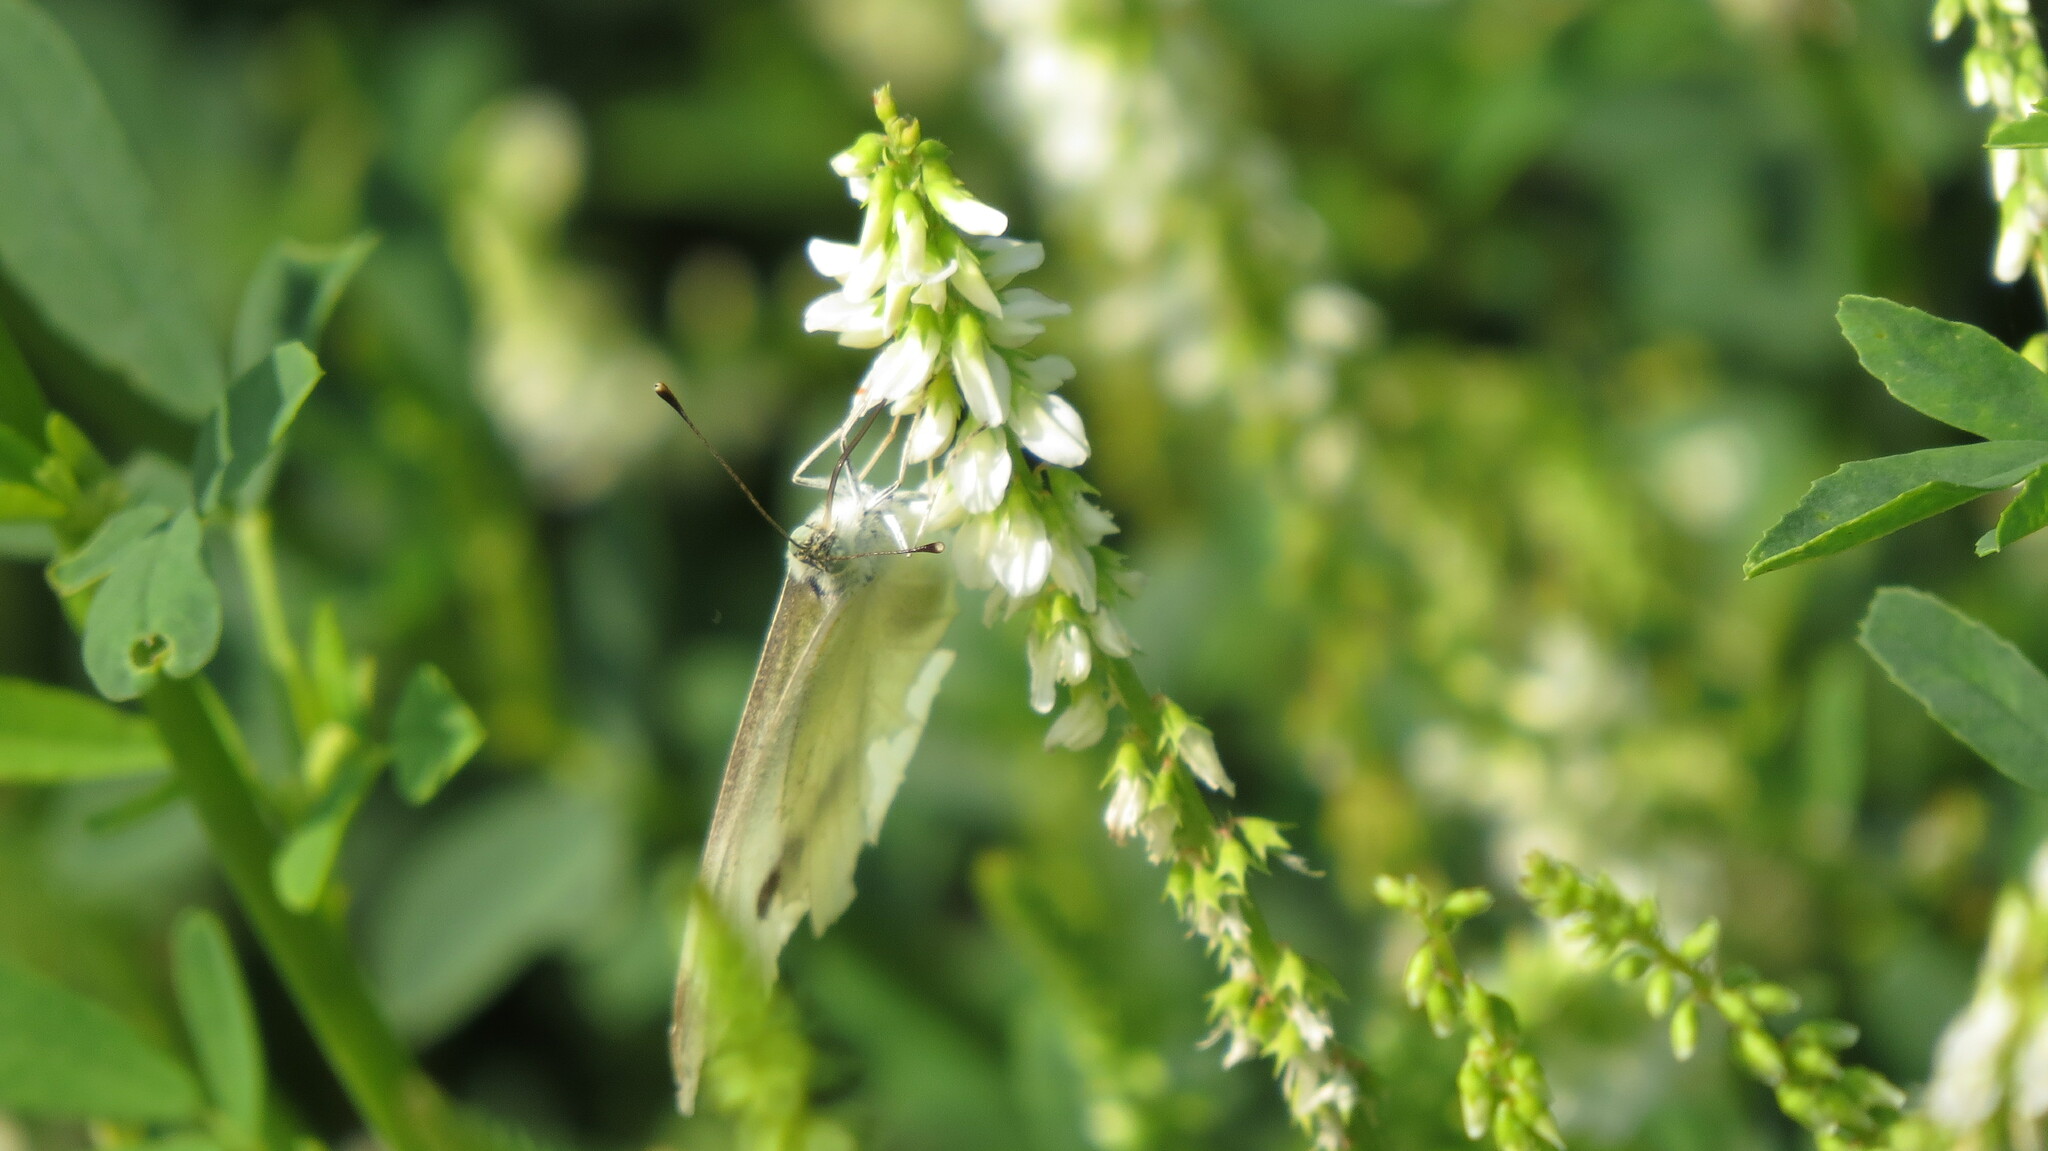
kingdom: Animalia
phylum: Arthropoda
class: Insecta
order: Lepidoptera
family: Pieridae
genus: Pieris
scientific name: Pieris rapae
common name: Small white
